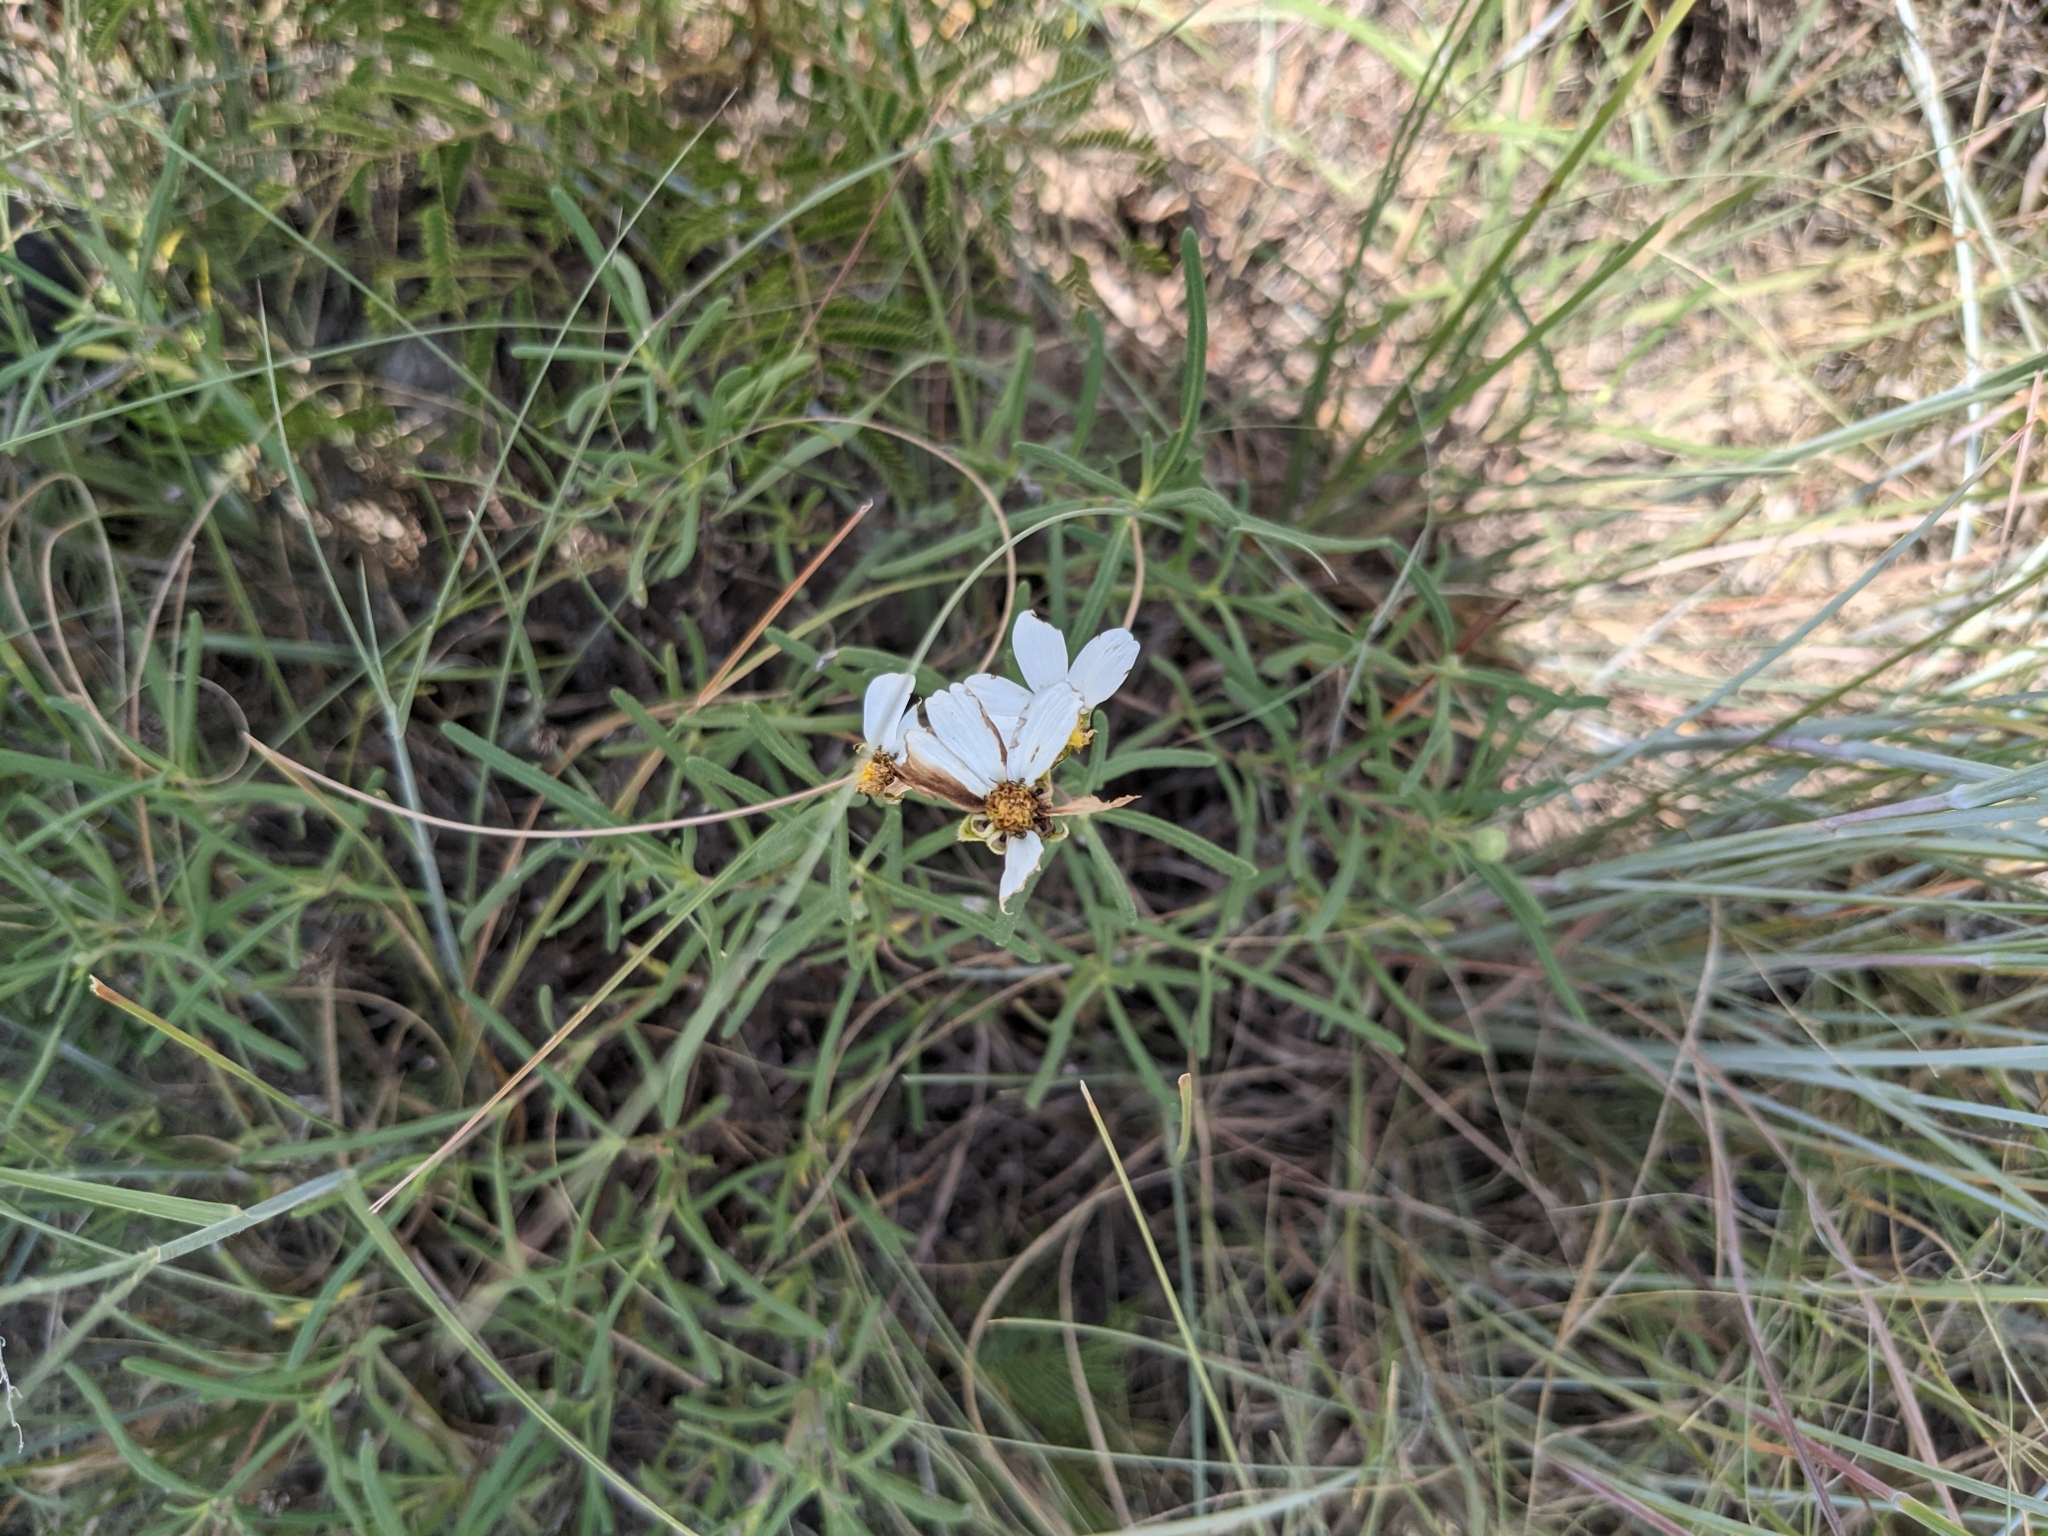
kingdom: Plantae
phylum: Tracheophyta
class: Magnoliopsida
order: Asterales
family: Asteraceae
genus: Melampodium
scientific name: Melampodium leucanthum
